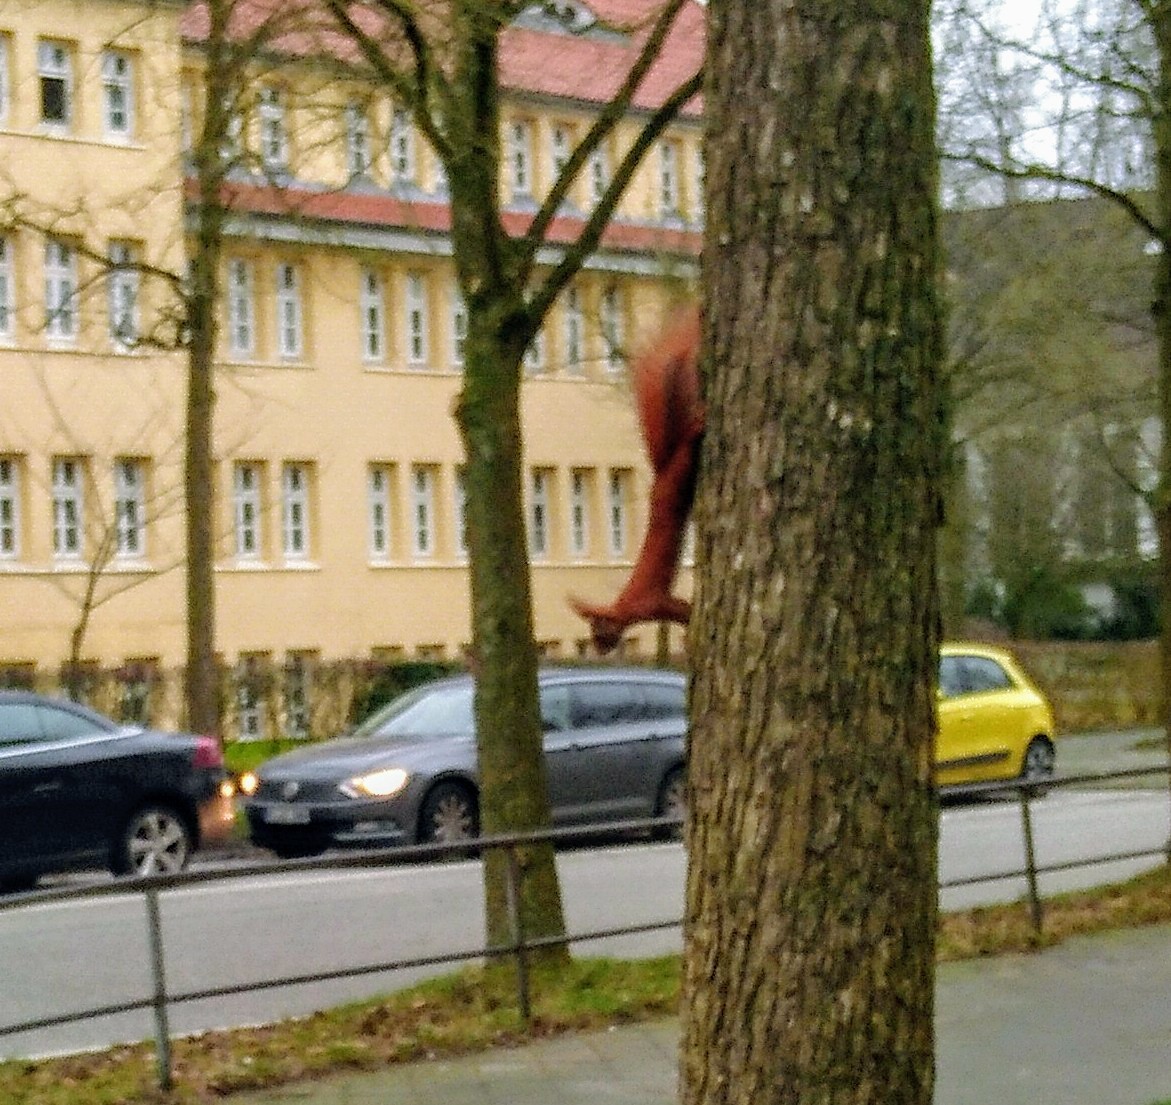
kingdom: Animalia
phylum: Chordata
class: Mammalia
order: Rodentia
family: Sciuridae
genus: Sciurus
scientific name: Sciurus vulgaris
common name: Eurasian red squirrel
